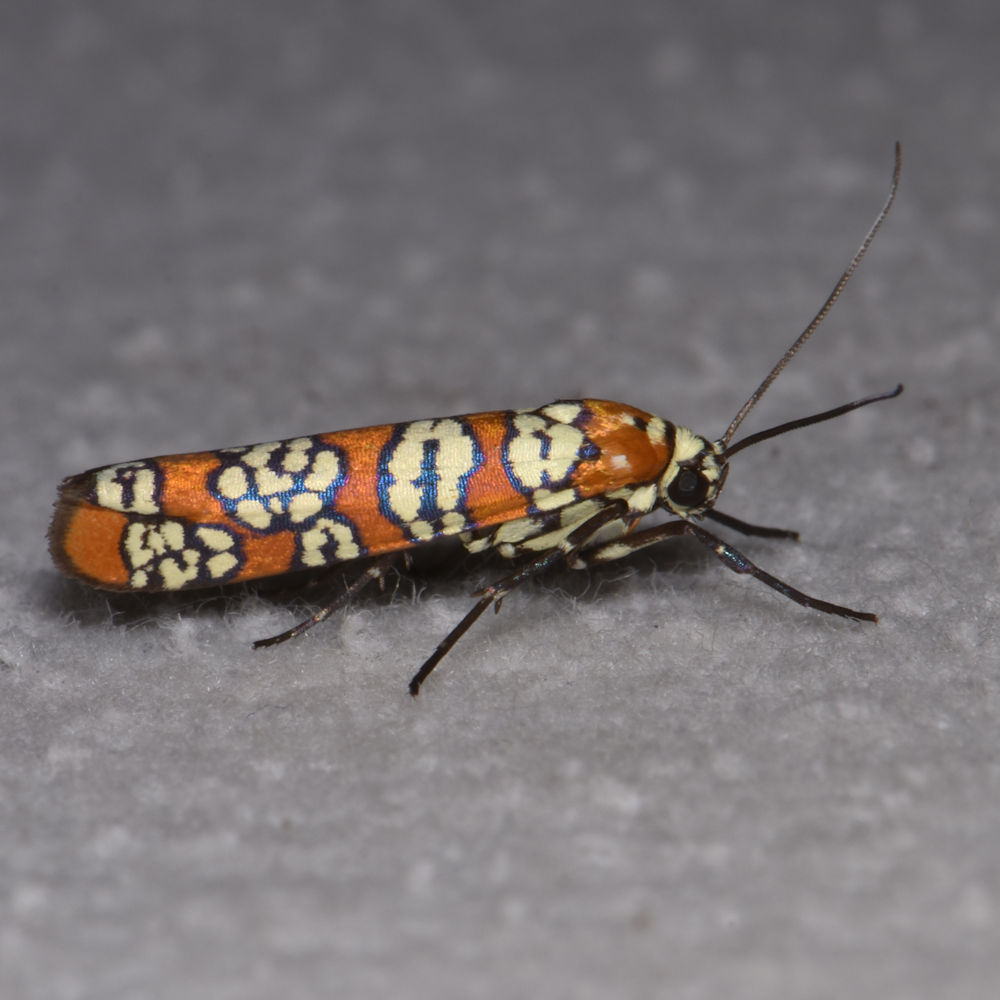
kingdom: Animalia
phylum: Arthropoda
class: Insecta
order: Lepidoptera
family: Attevidae
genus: Atteva
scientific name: Atteva punctella
